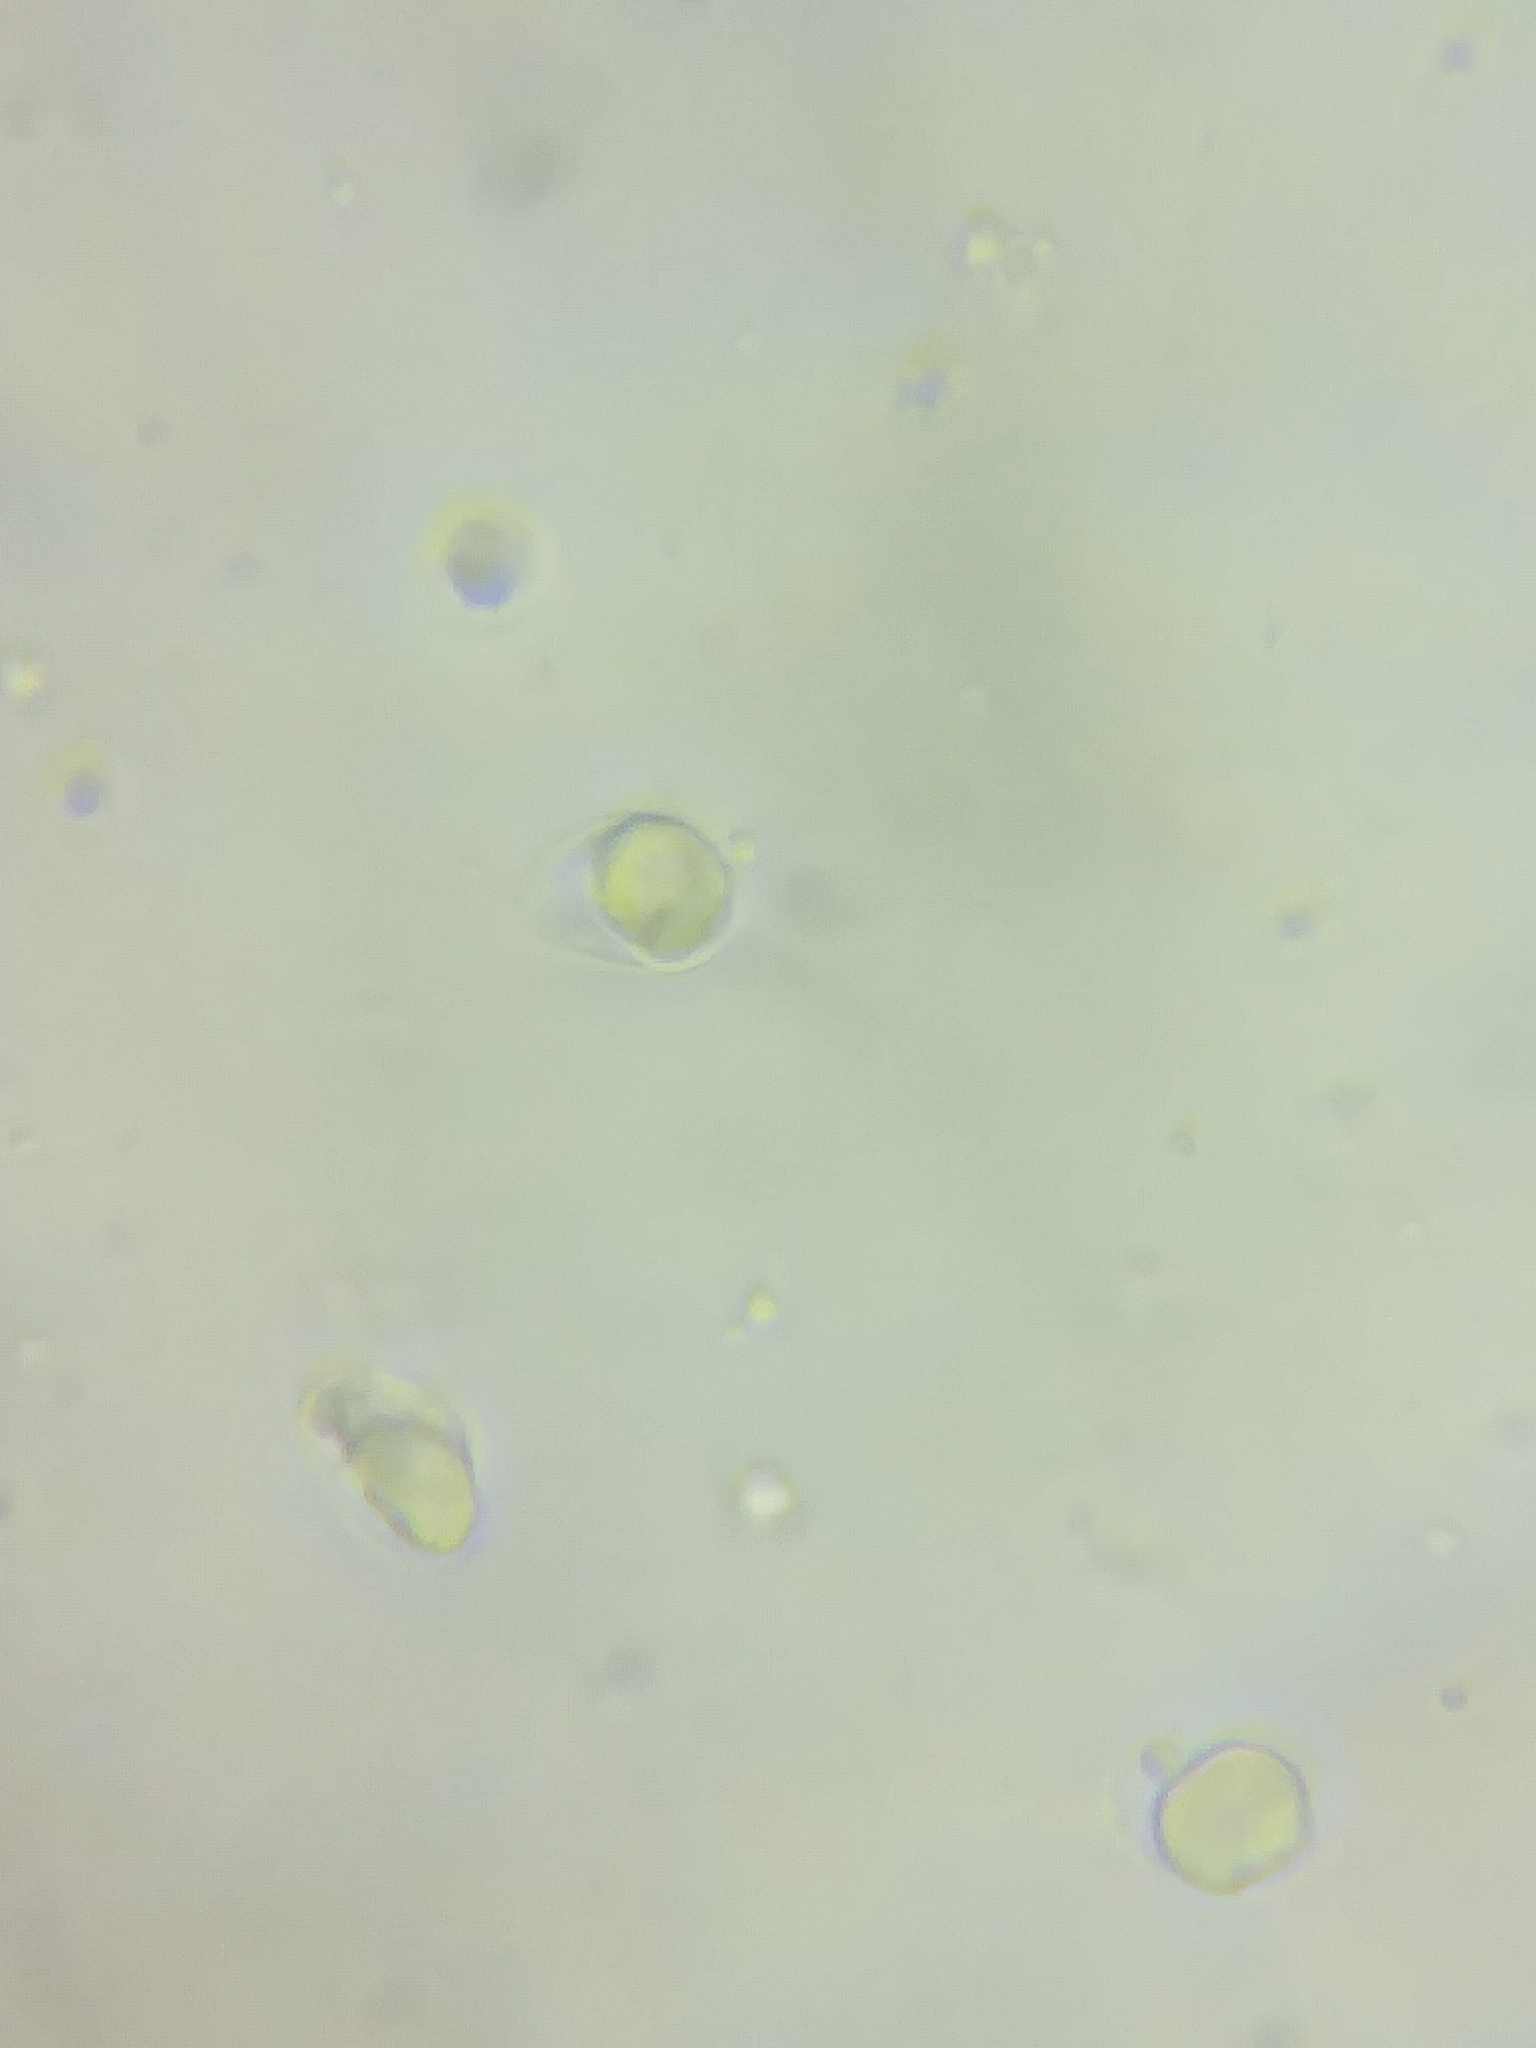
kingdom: Fungi
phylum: Basidiomycota
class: Agaricomycetes
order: Agaricales
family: Omphalotaceae
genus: Collybiopsis
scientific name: Collybiopsis subnuda
